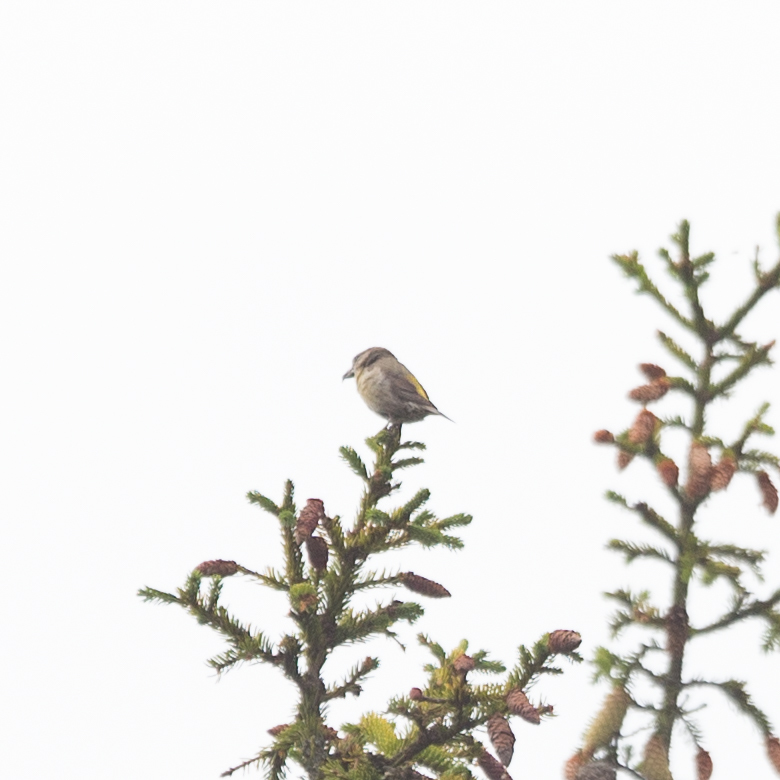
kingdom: Animalia
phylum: Chordata
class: Aves
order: Passeriformes
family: Fringillidae
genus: Loxia
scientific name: Loxia curvirostra
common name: Red crossbill
